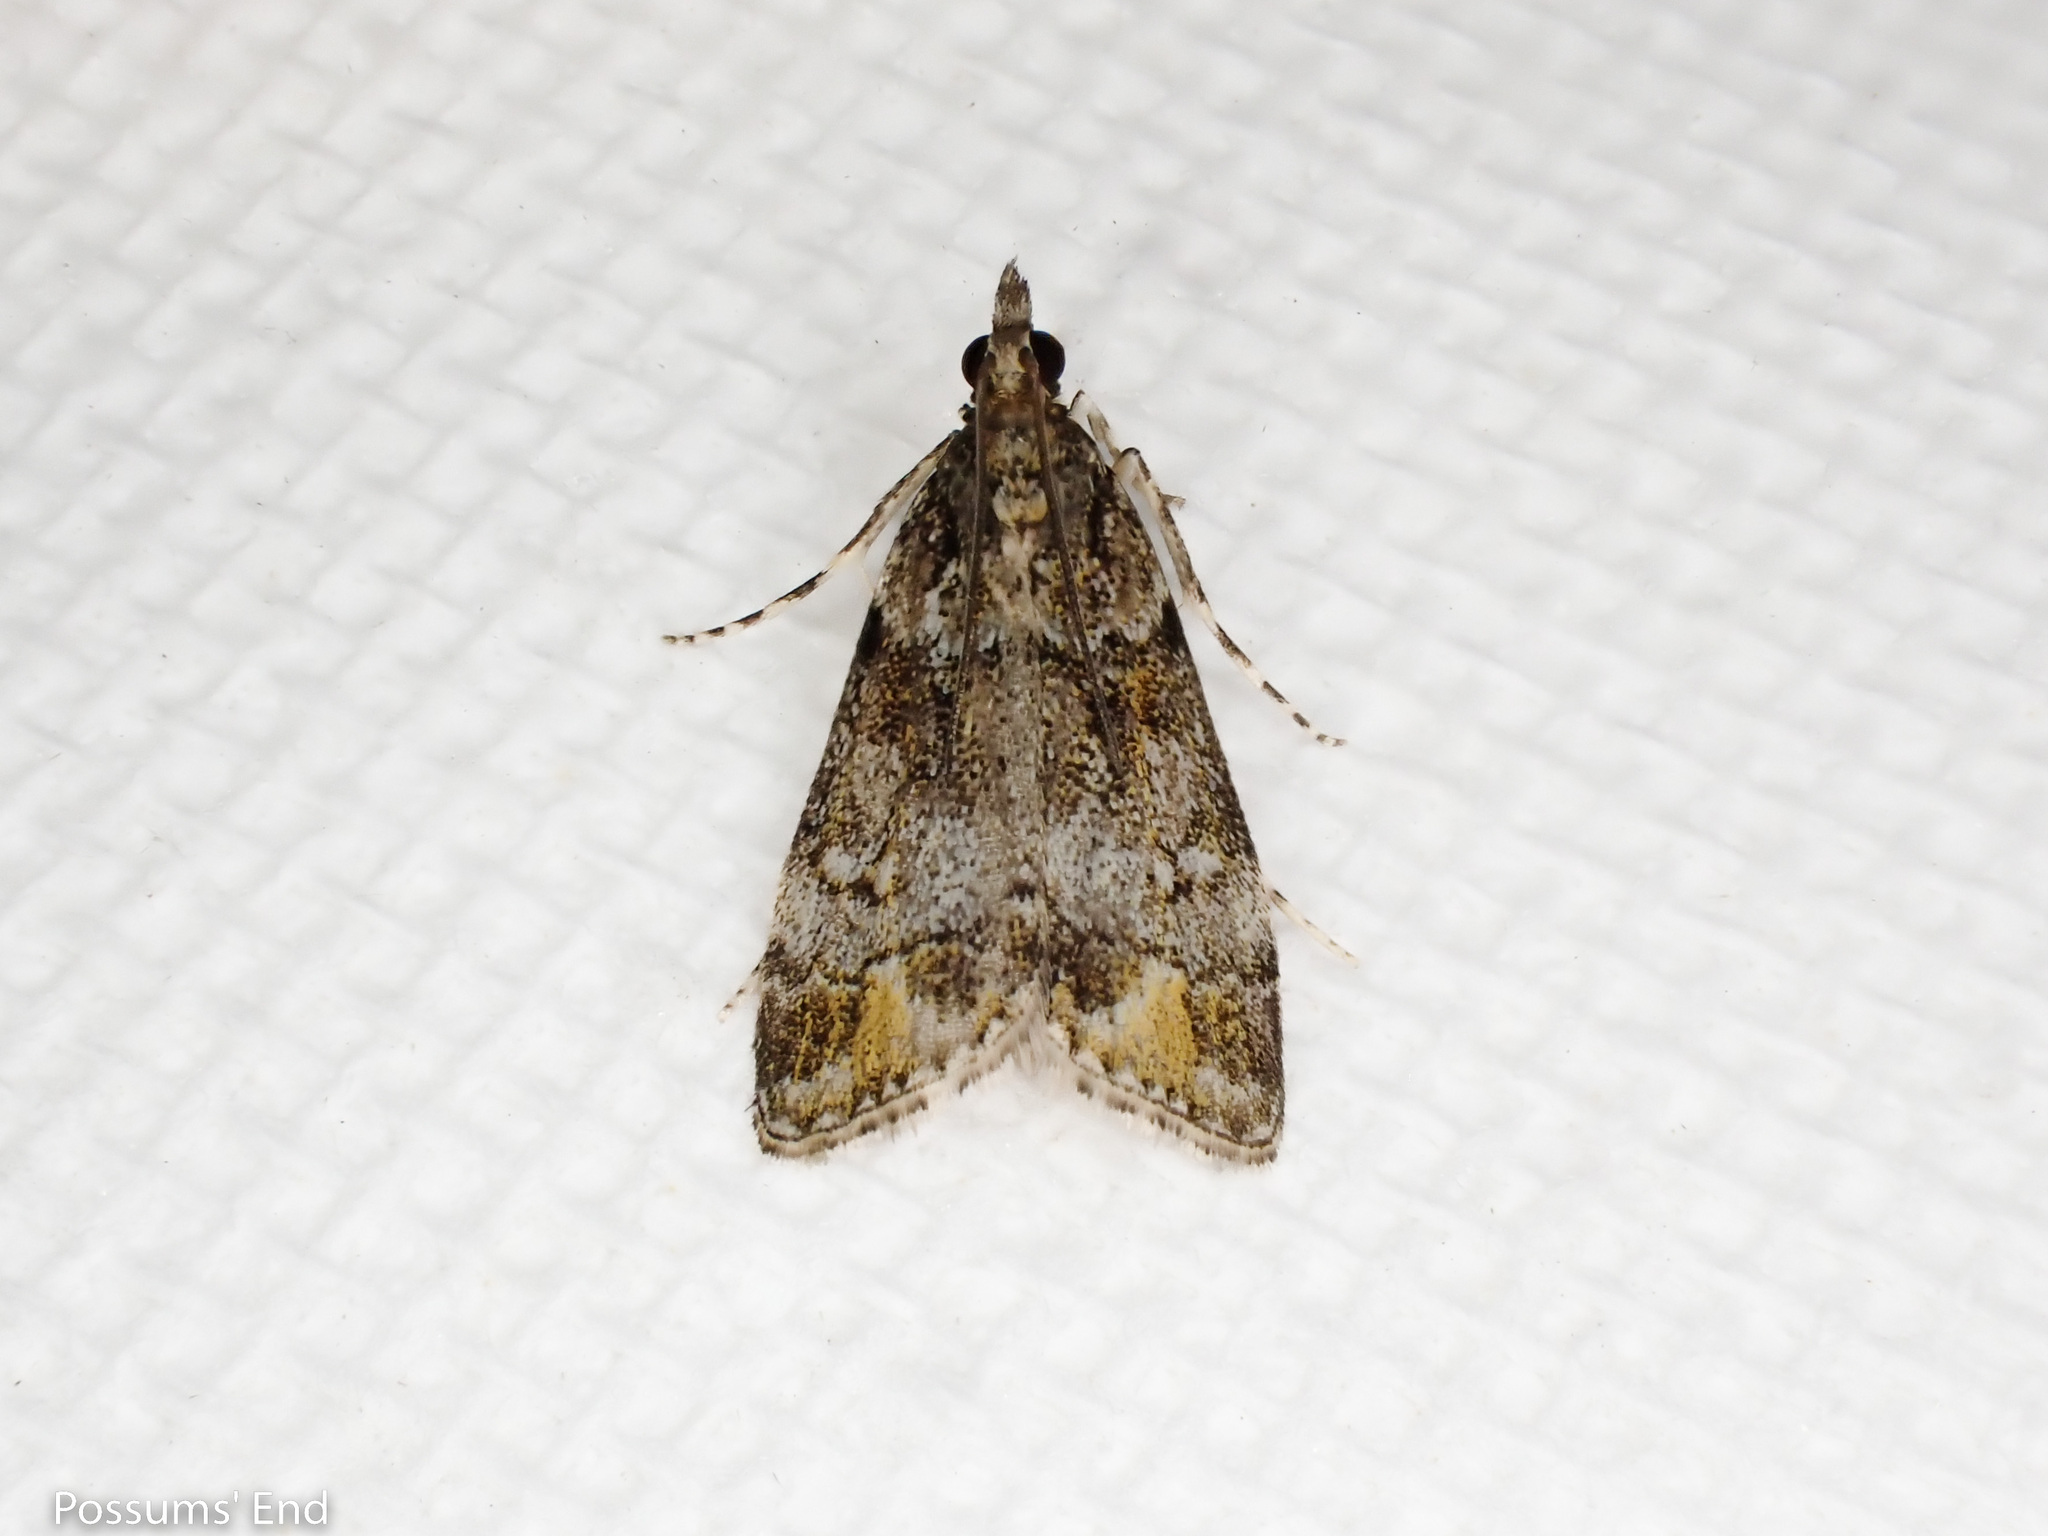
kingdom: Animalia
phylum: Arthropoda
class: Insecta
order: Lepidoptera
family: Crambidae
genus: Eudonia
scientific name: Eudonia minualis
